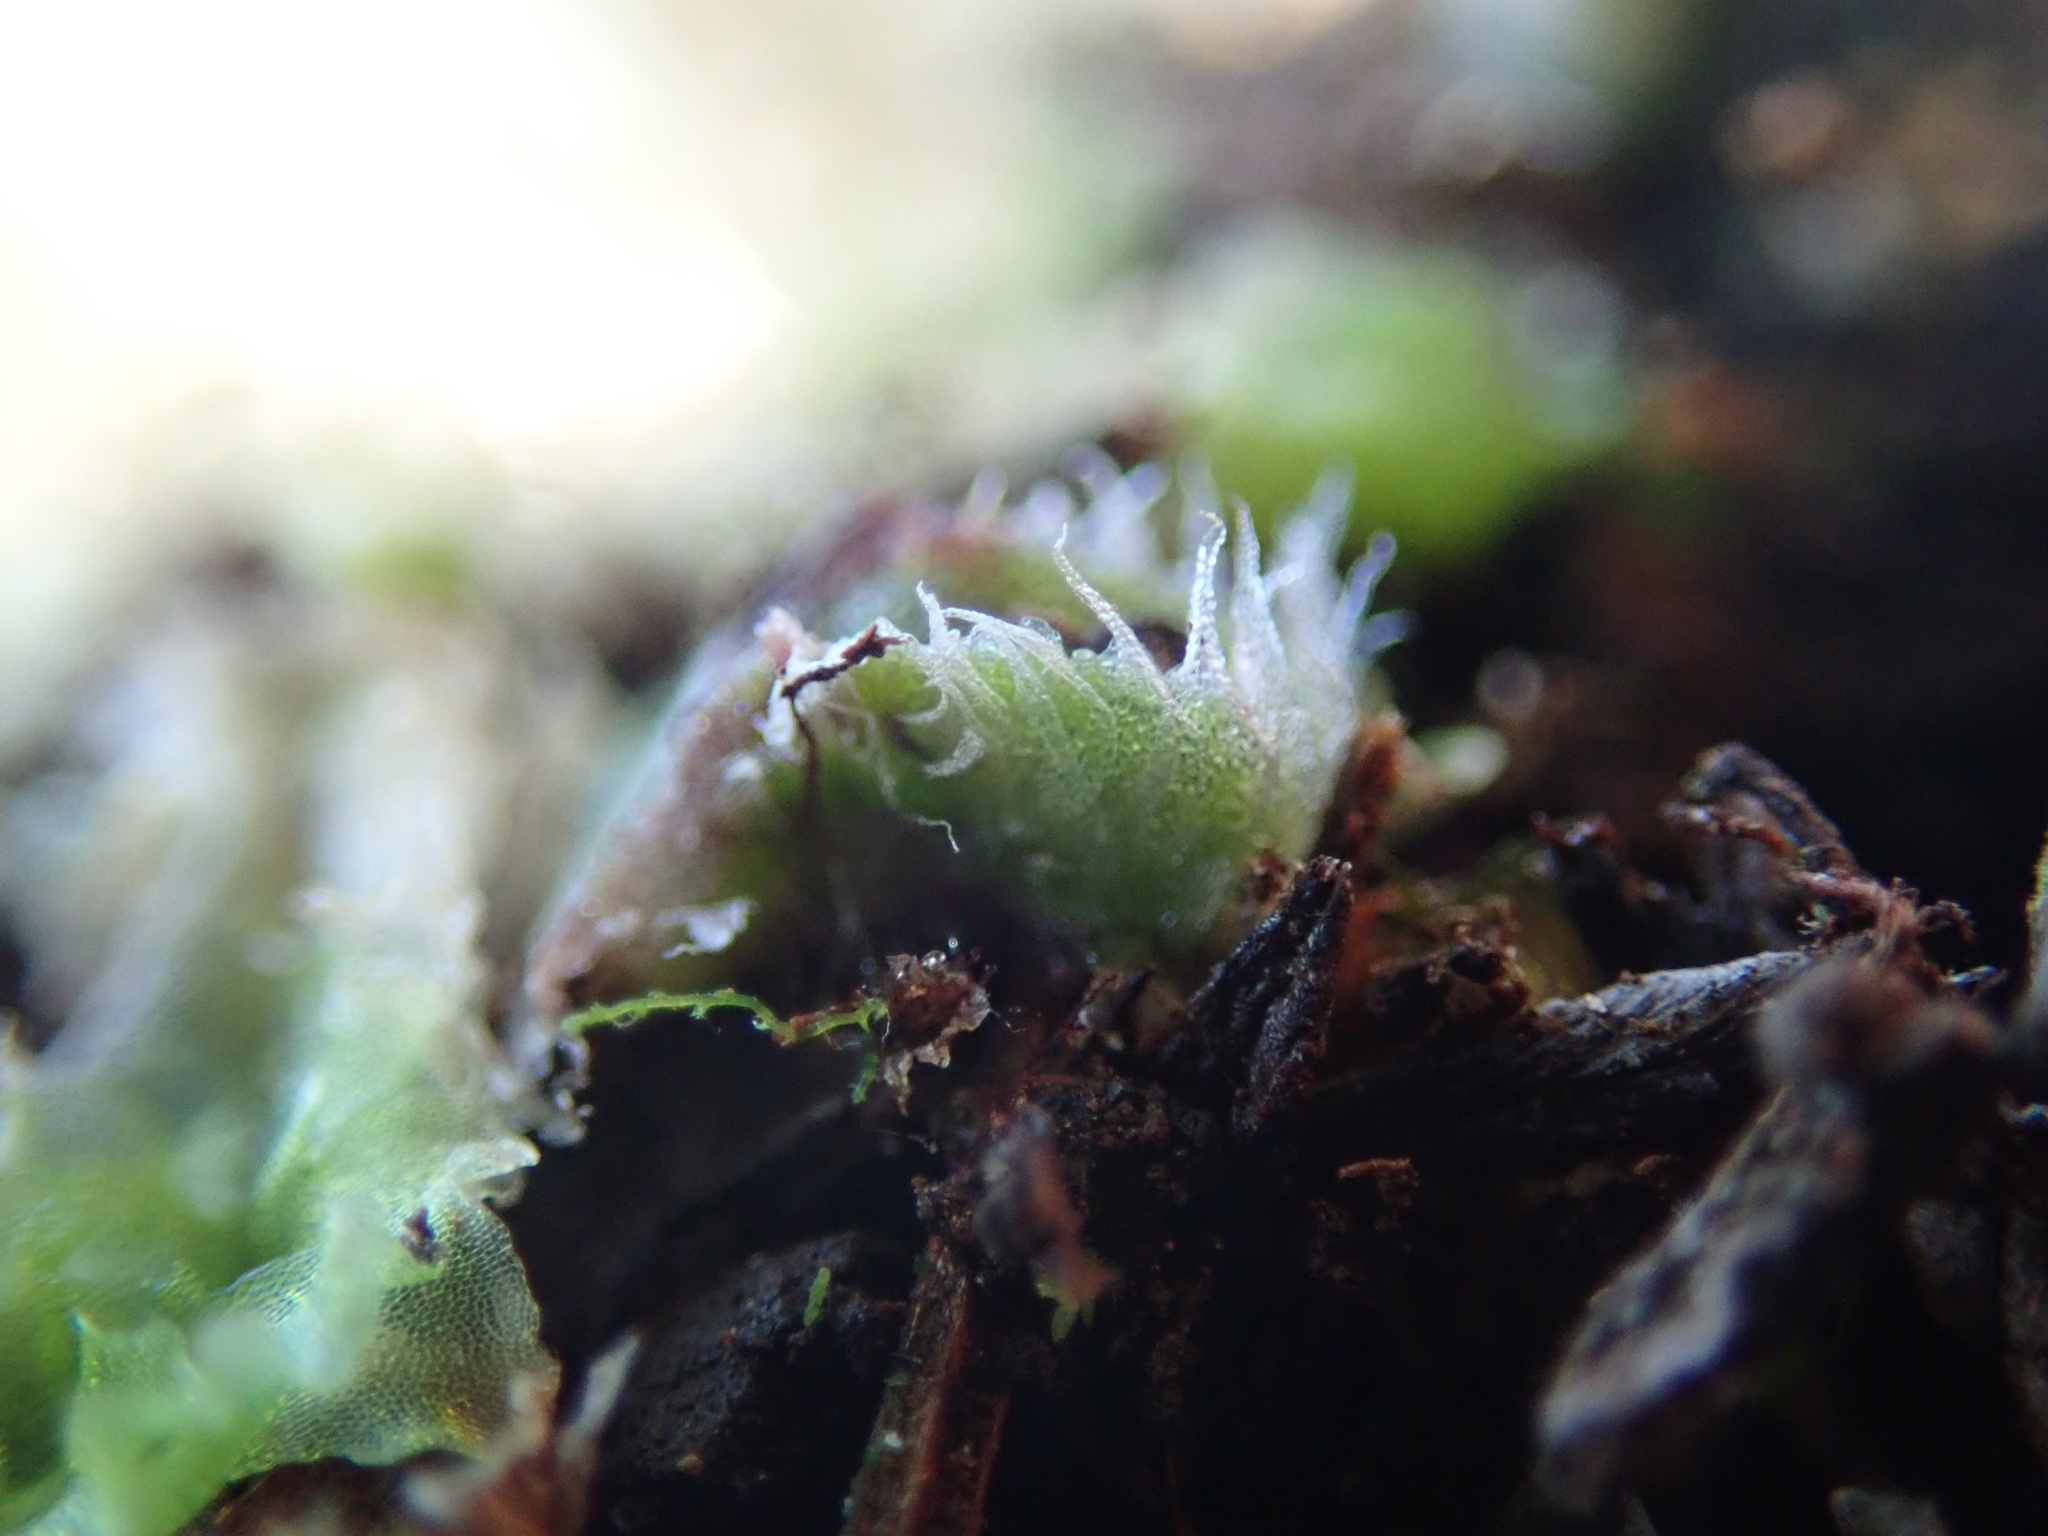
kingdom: Plantae
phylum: Marchantiophyta
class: Marchantiopsida
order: Marchantiales
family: Cleveaceae
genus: Clevea
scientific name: Clevea hyalina
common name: Hyaline liverwort
